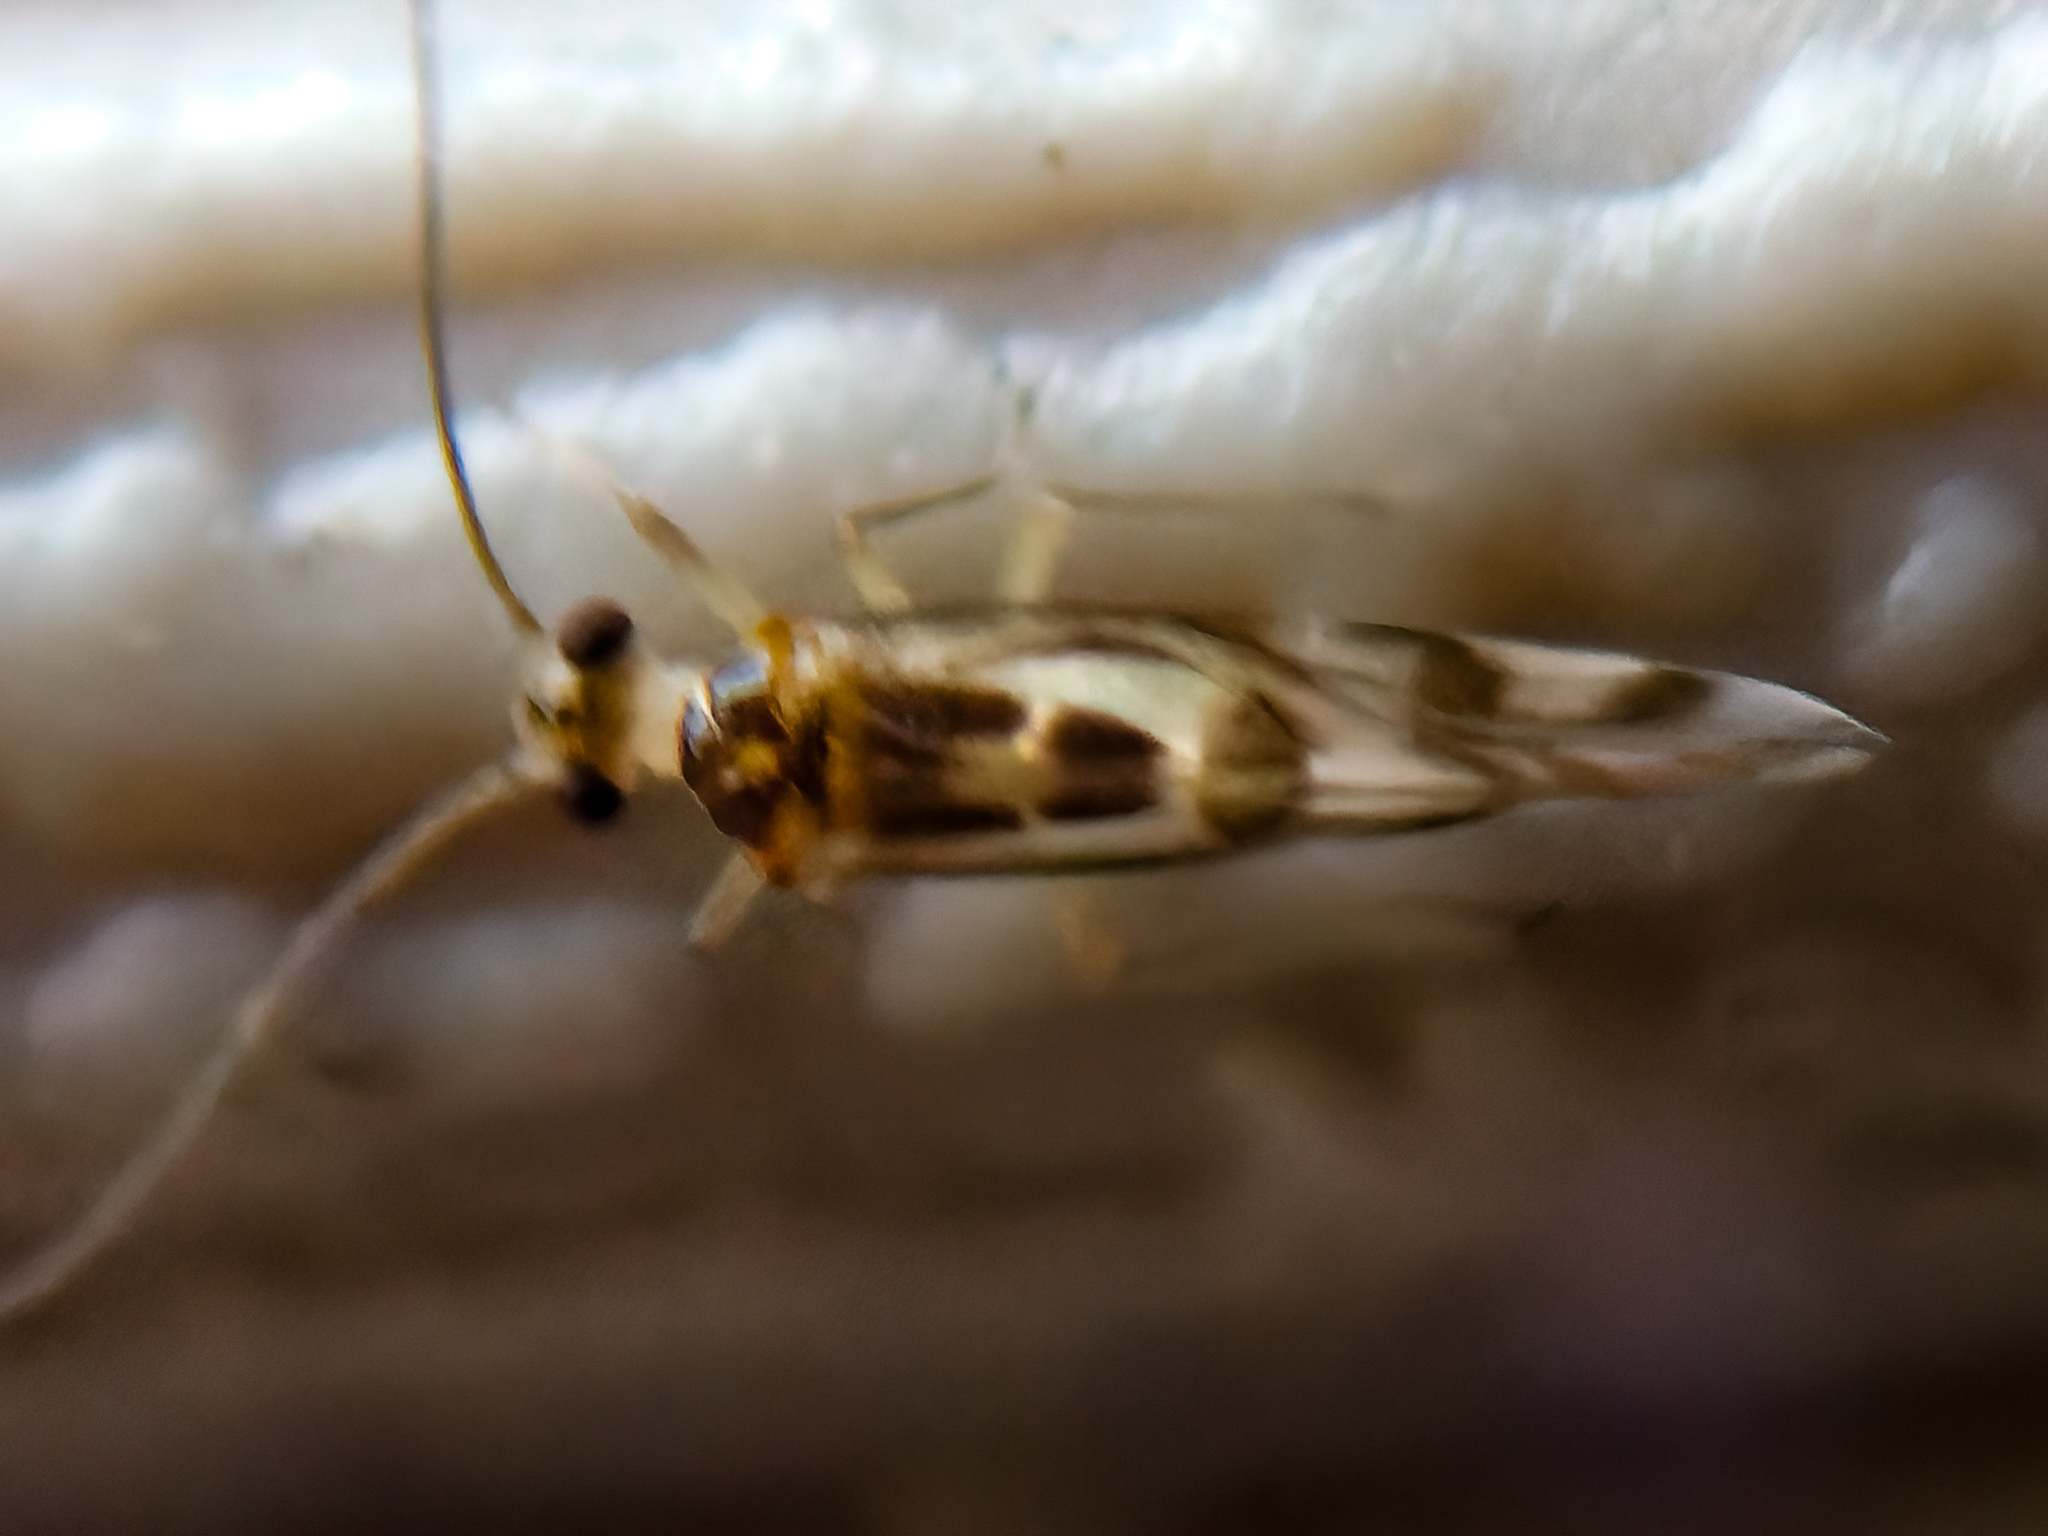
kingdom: Animalia
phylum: Arthropoda
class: Insecta
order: Psocodea
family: Stenopsocidae
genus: Graphopsocus
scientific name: Graphopsocus cruciatus
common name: Lizard bark louse
